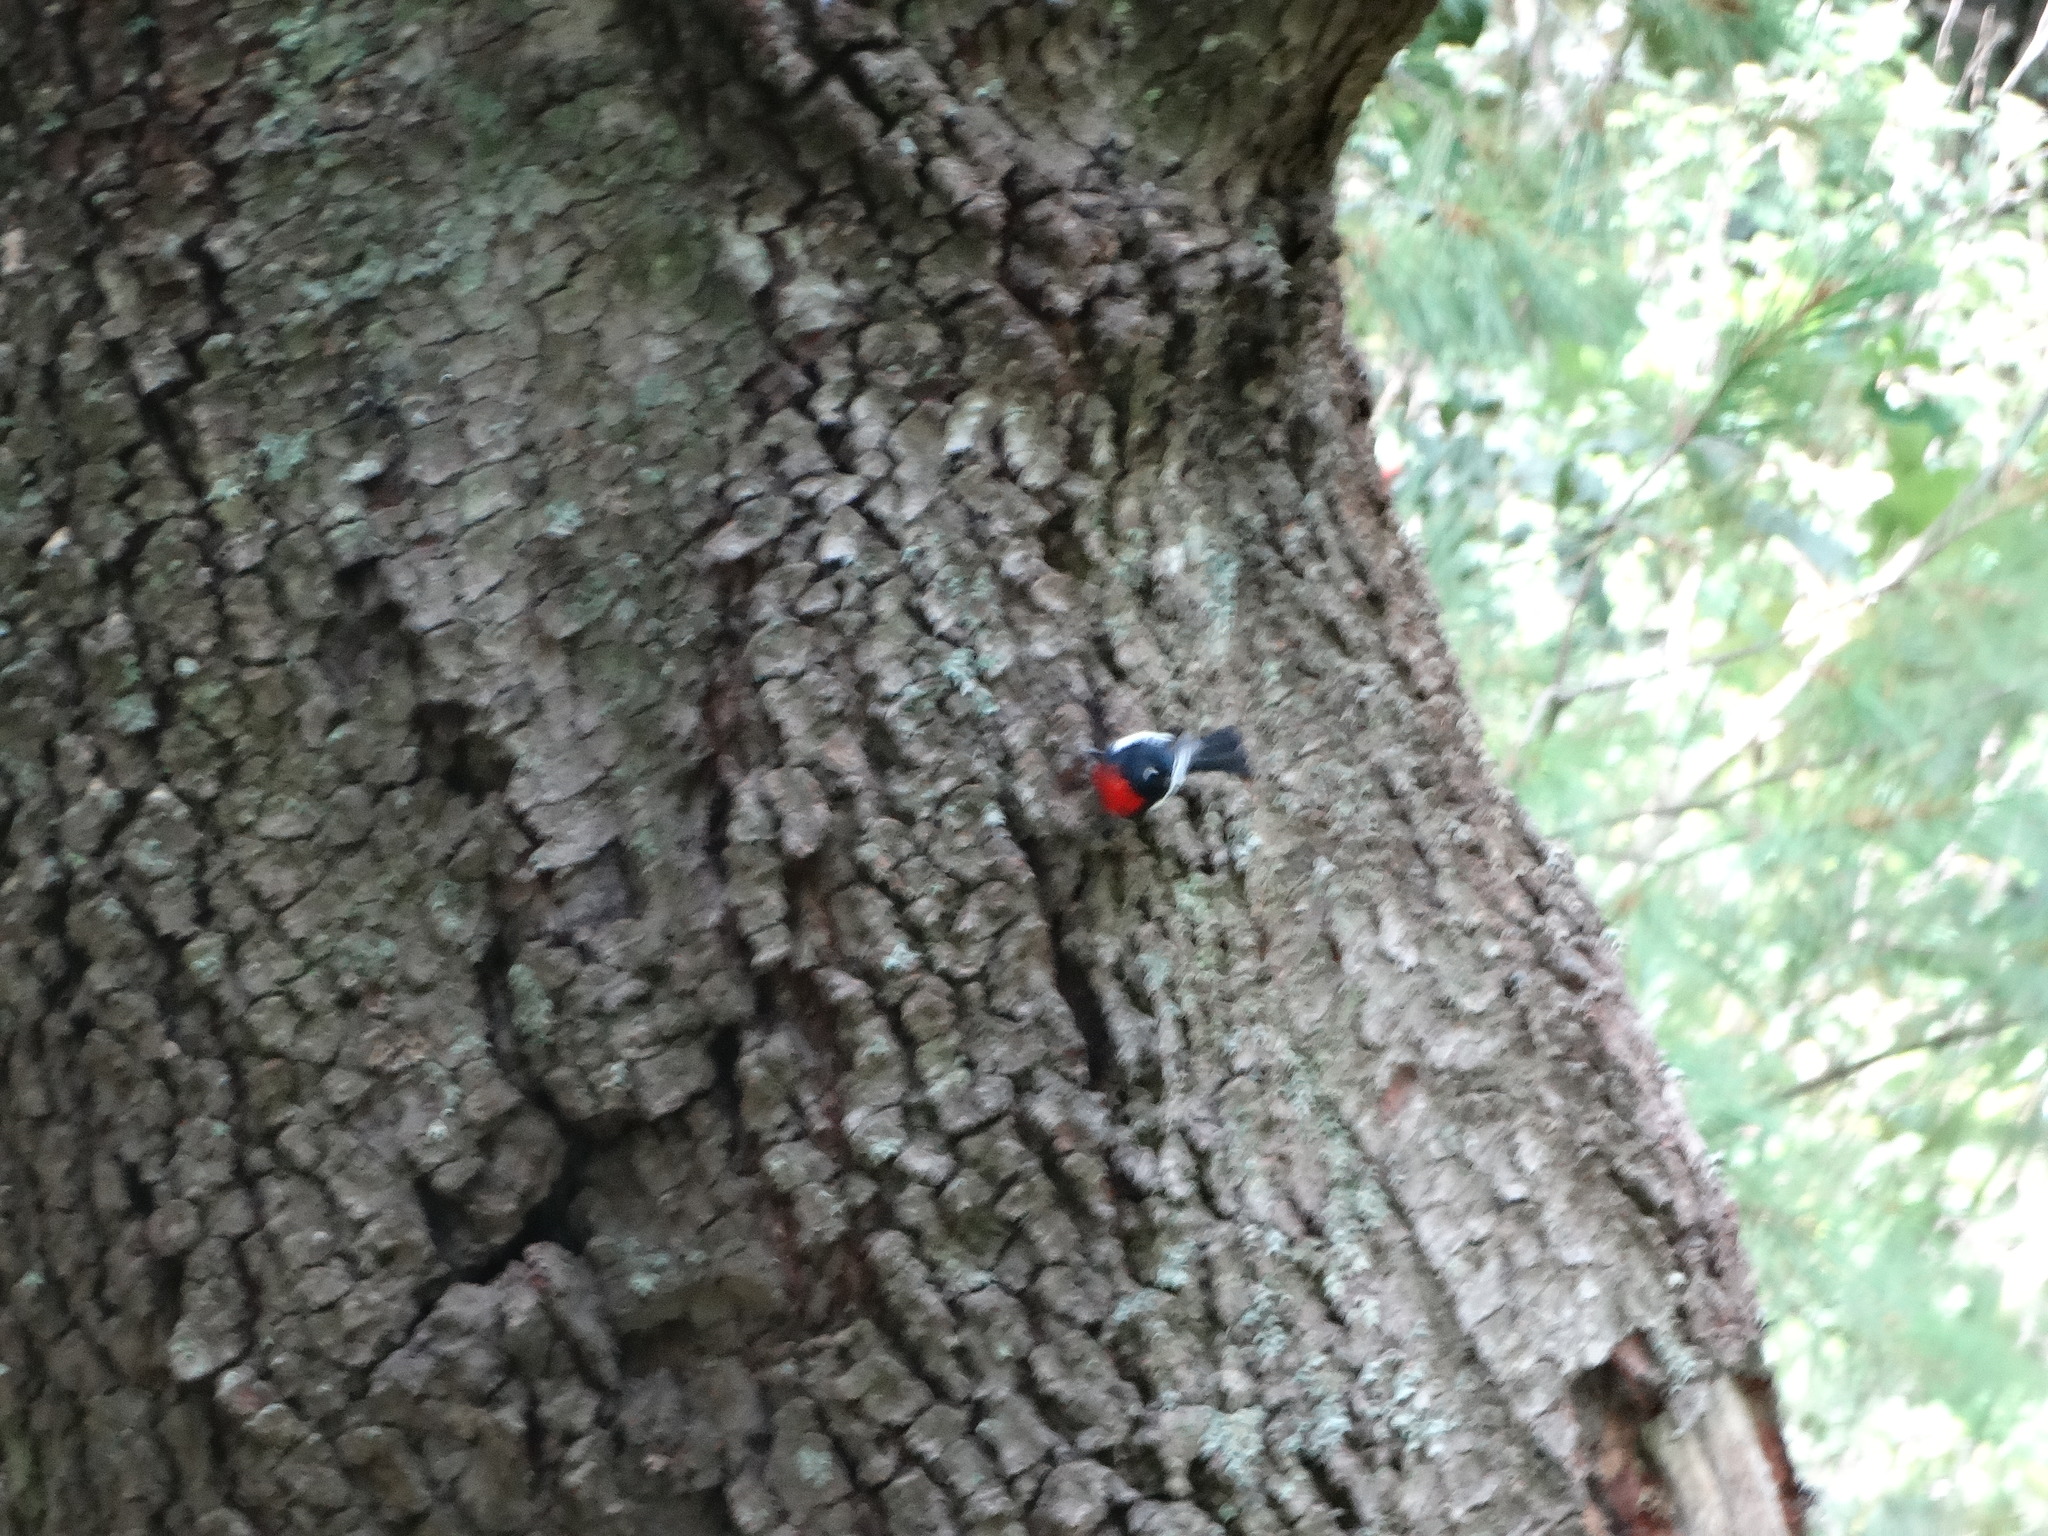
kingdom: Animalia
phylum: Chordata
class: Aves
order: Passeriformes
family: Parulidae
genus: Myioborus
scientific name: Myioborus pictus
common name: Painted whitestart
